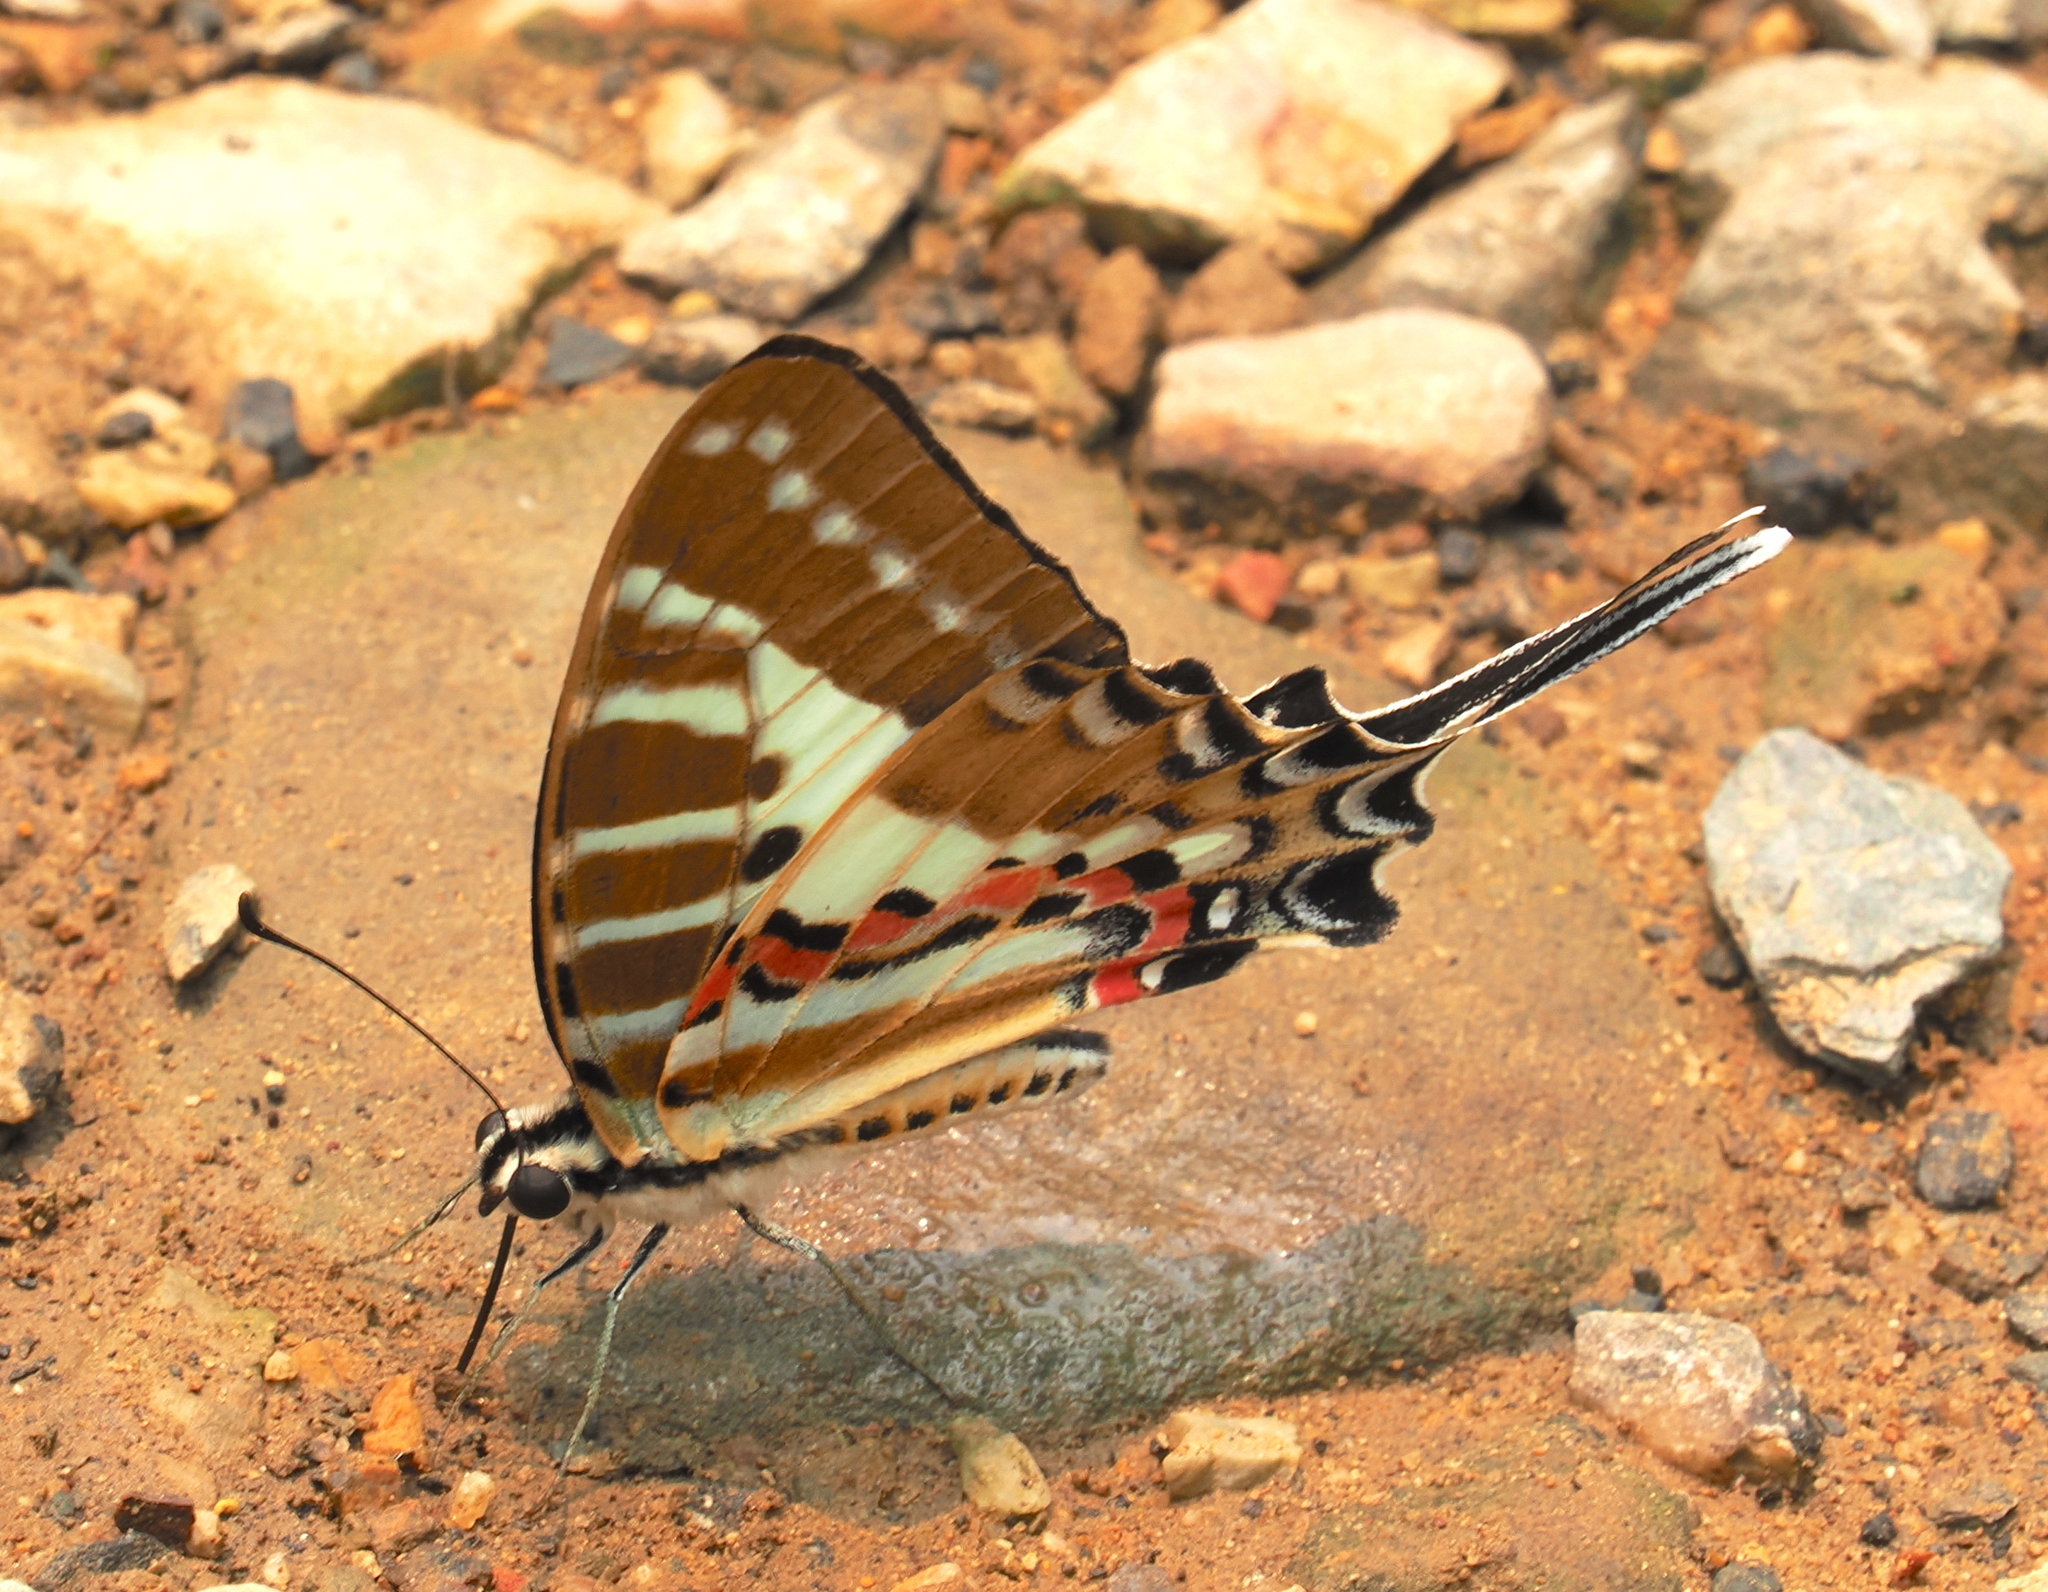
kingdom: Animalia
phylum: Arthropoda
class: Insecta
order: Lepidoptera
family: Papilionidae
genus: Graphium
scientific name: Graphium nomius
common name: Spot swordtail
